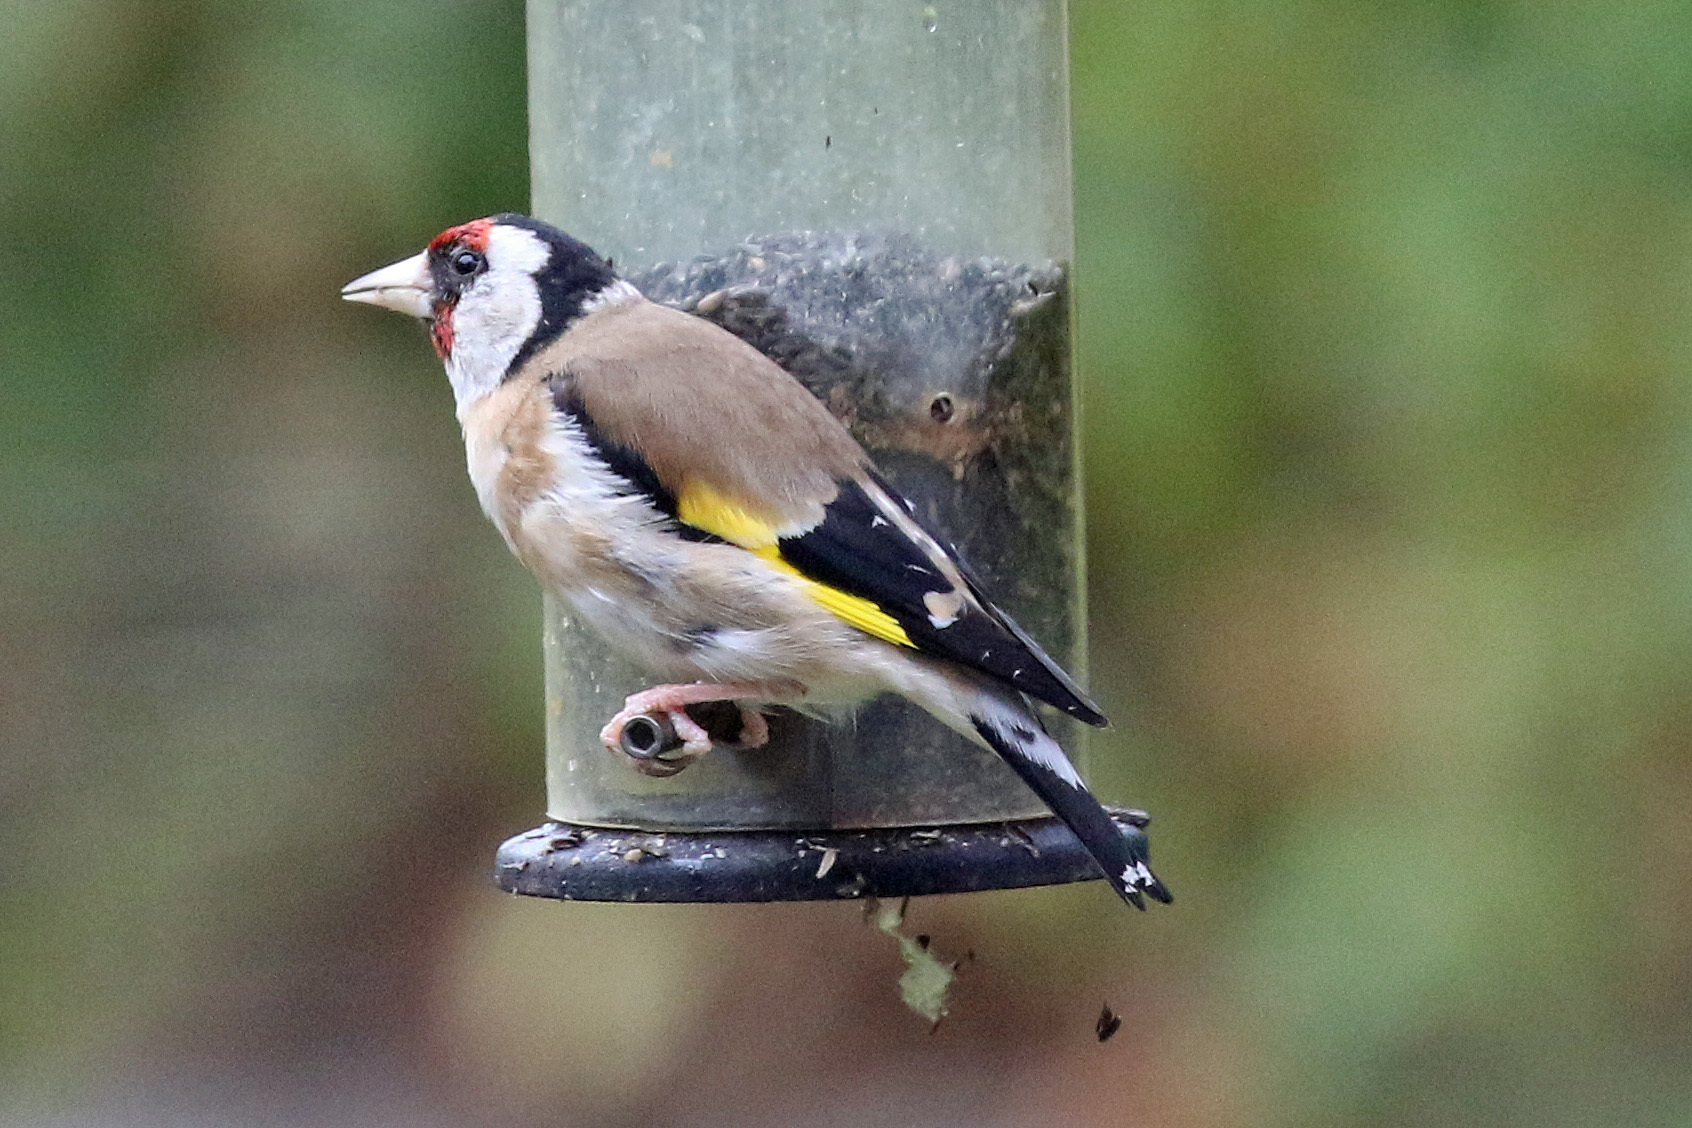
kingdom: Animalia
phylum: Chordata
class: Aves
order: Passeriformes
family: Fringillidae
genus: Carduelis
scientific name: Carduelis carduelis
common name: European goldfinch
